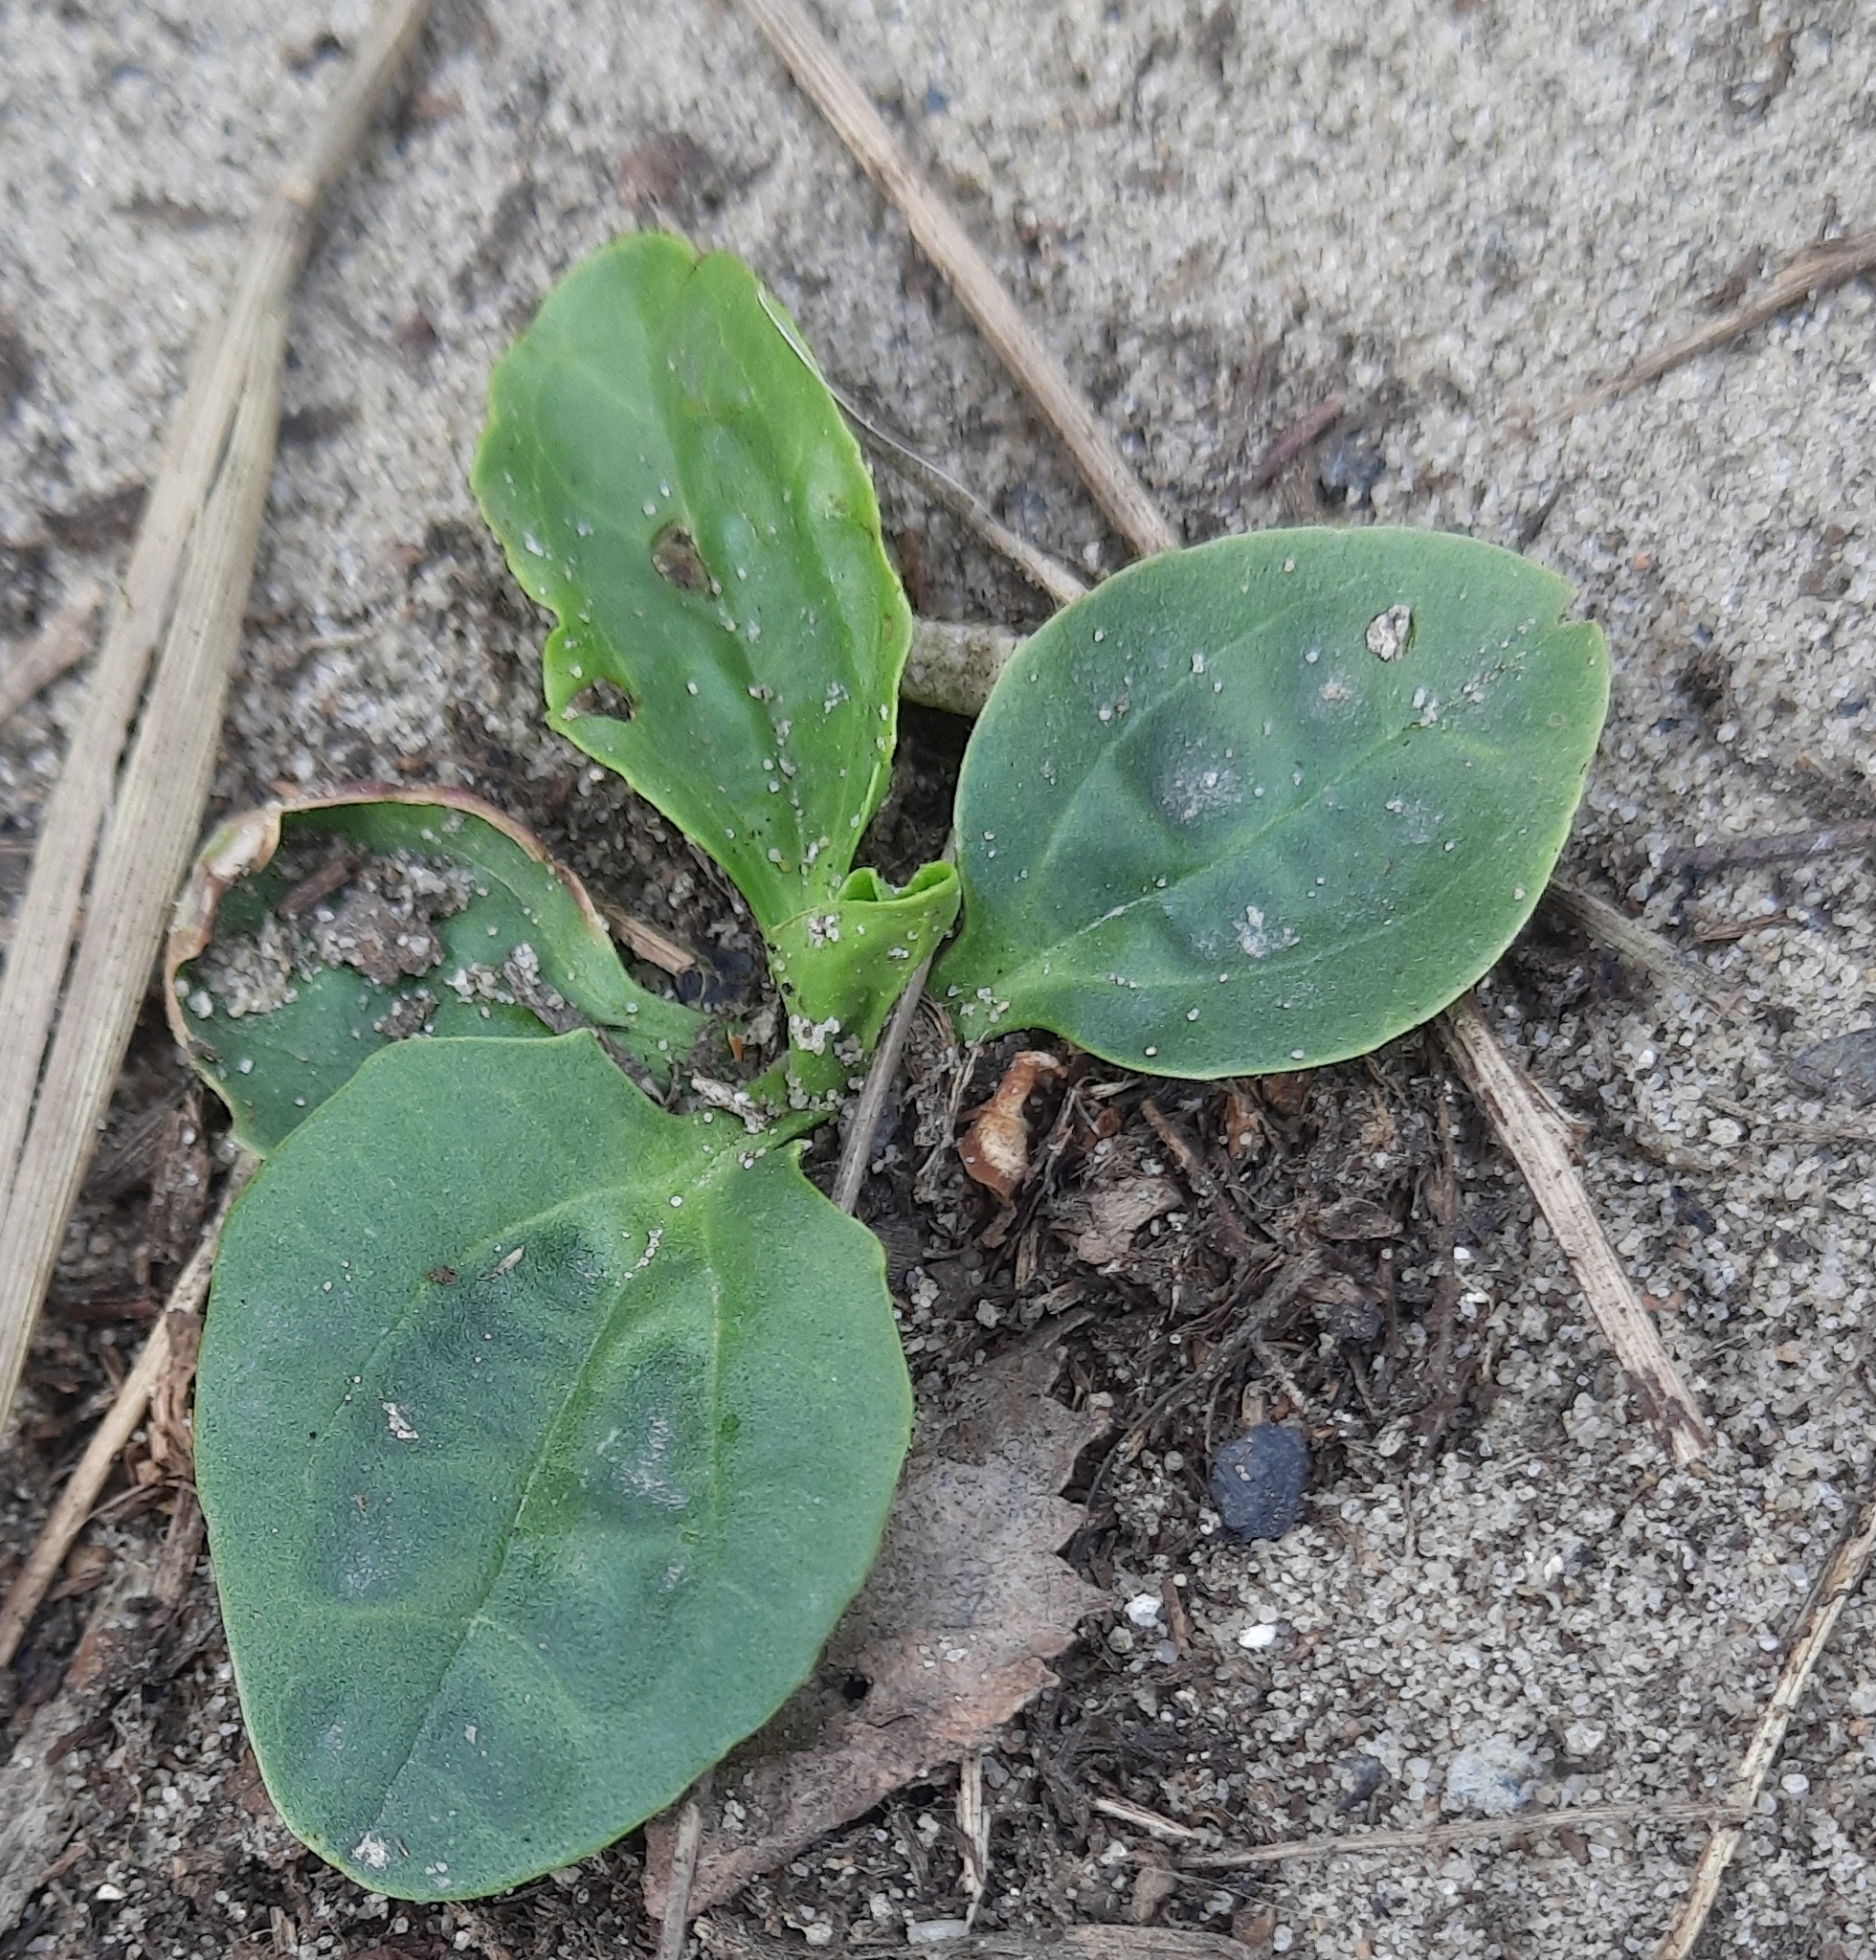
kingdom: Plantae
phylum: Tracheophyta
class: Magnoliopsida
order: Lamiales
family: Plantaginaceae
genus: Plantago
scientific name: Plantago major
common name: Common plantain
